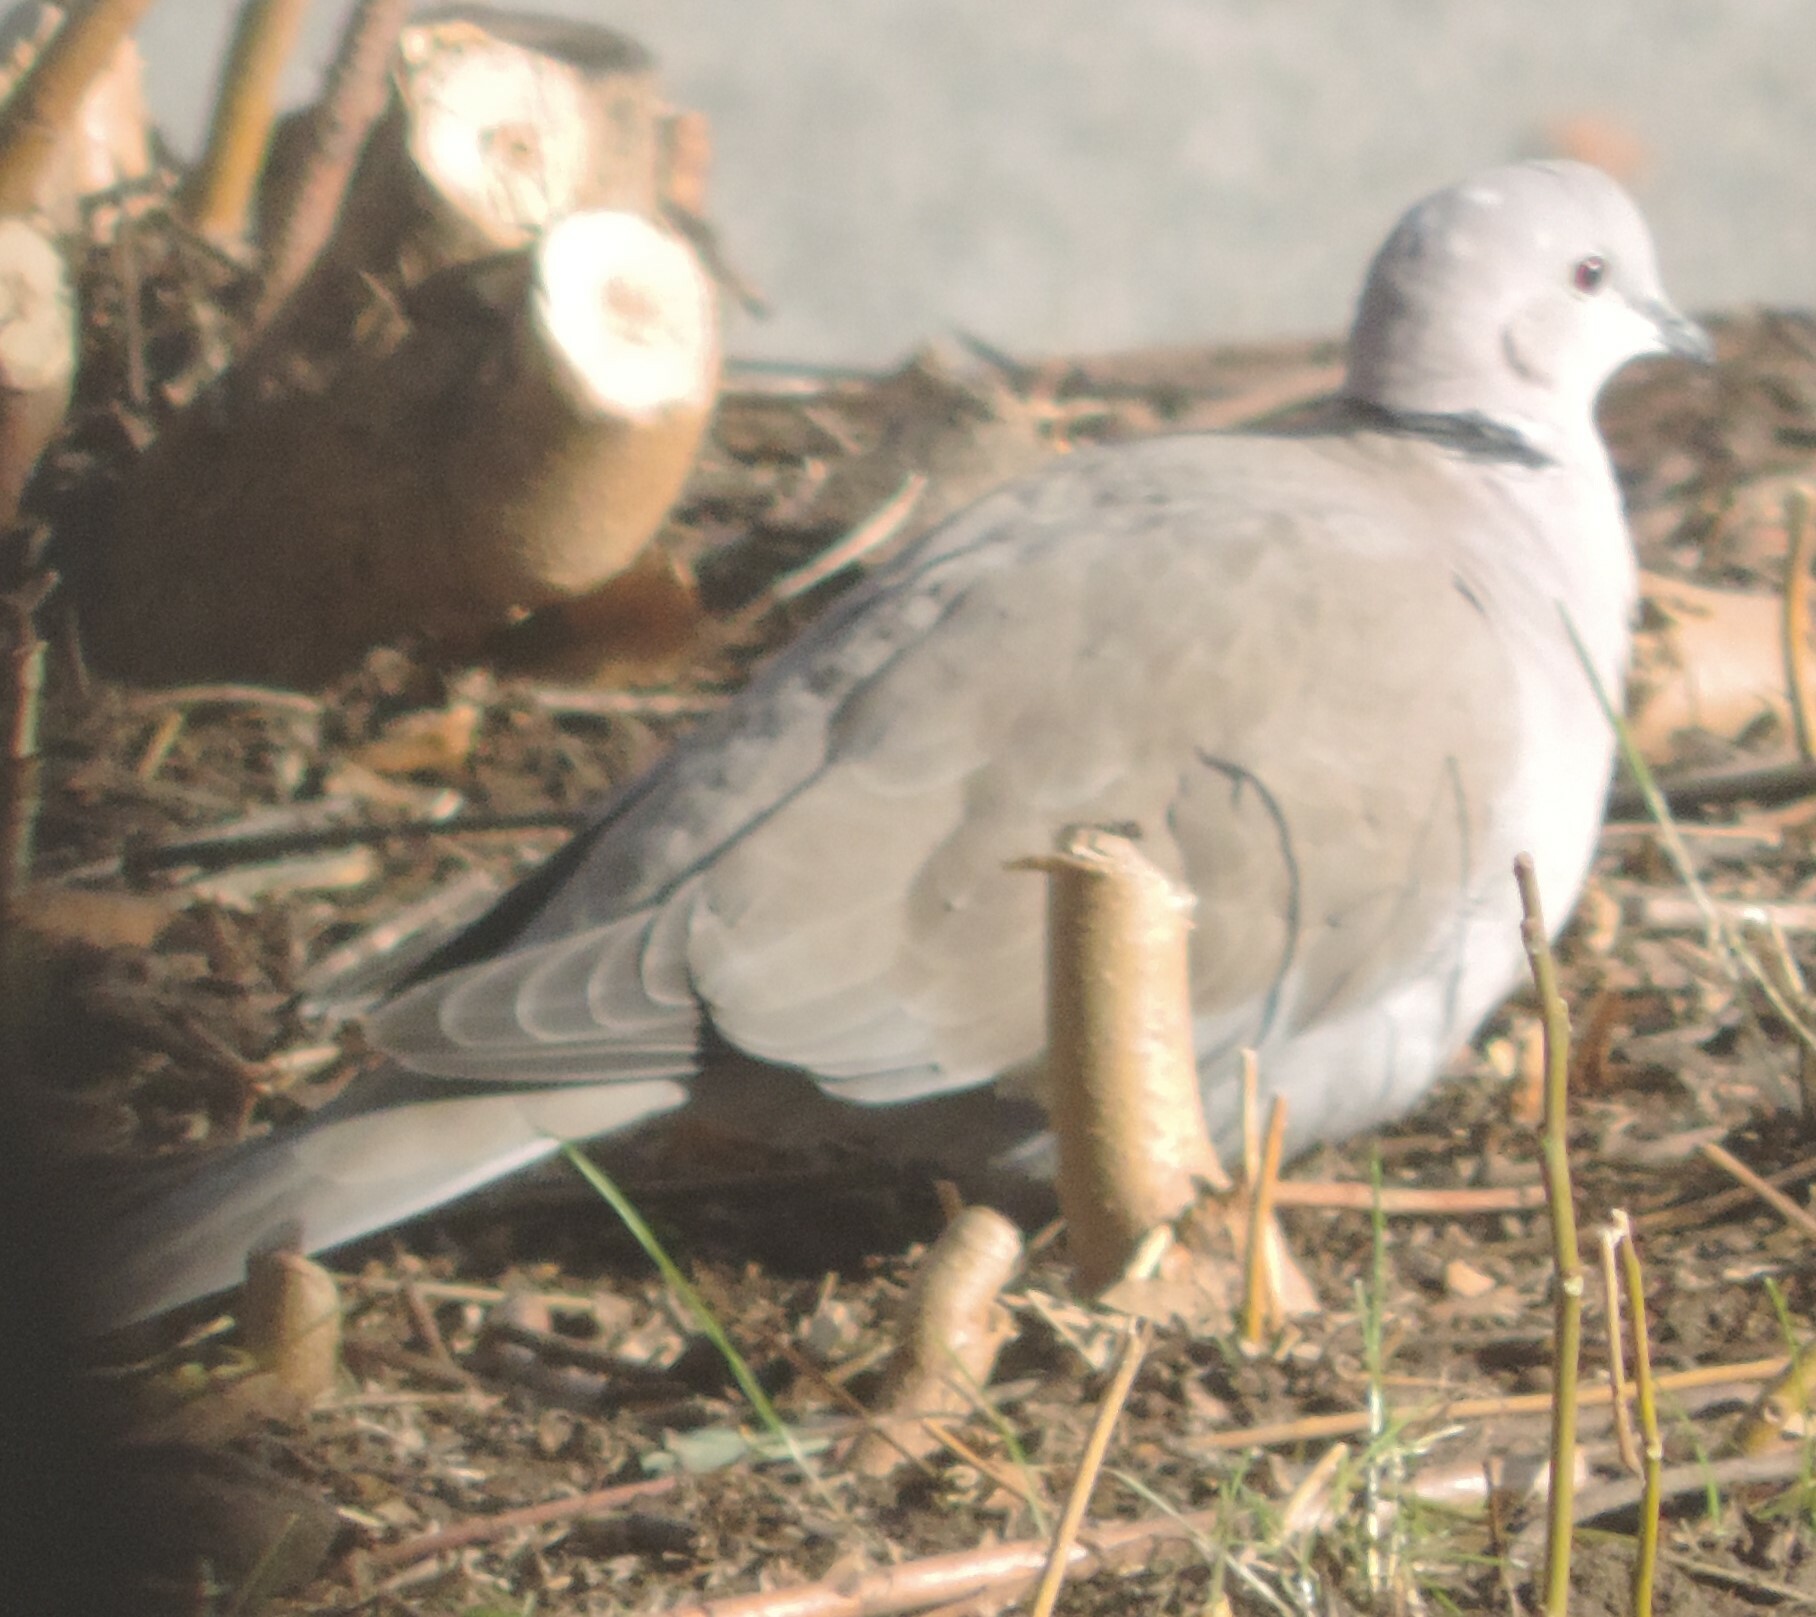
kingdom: Animalia
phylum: Chordata
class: Aves
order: Columbiformes
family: Columbidae
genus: Streptopelia
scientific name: Streptopelia decaocto
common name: Eurasian collared dove
